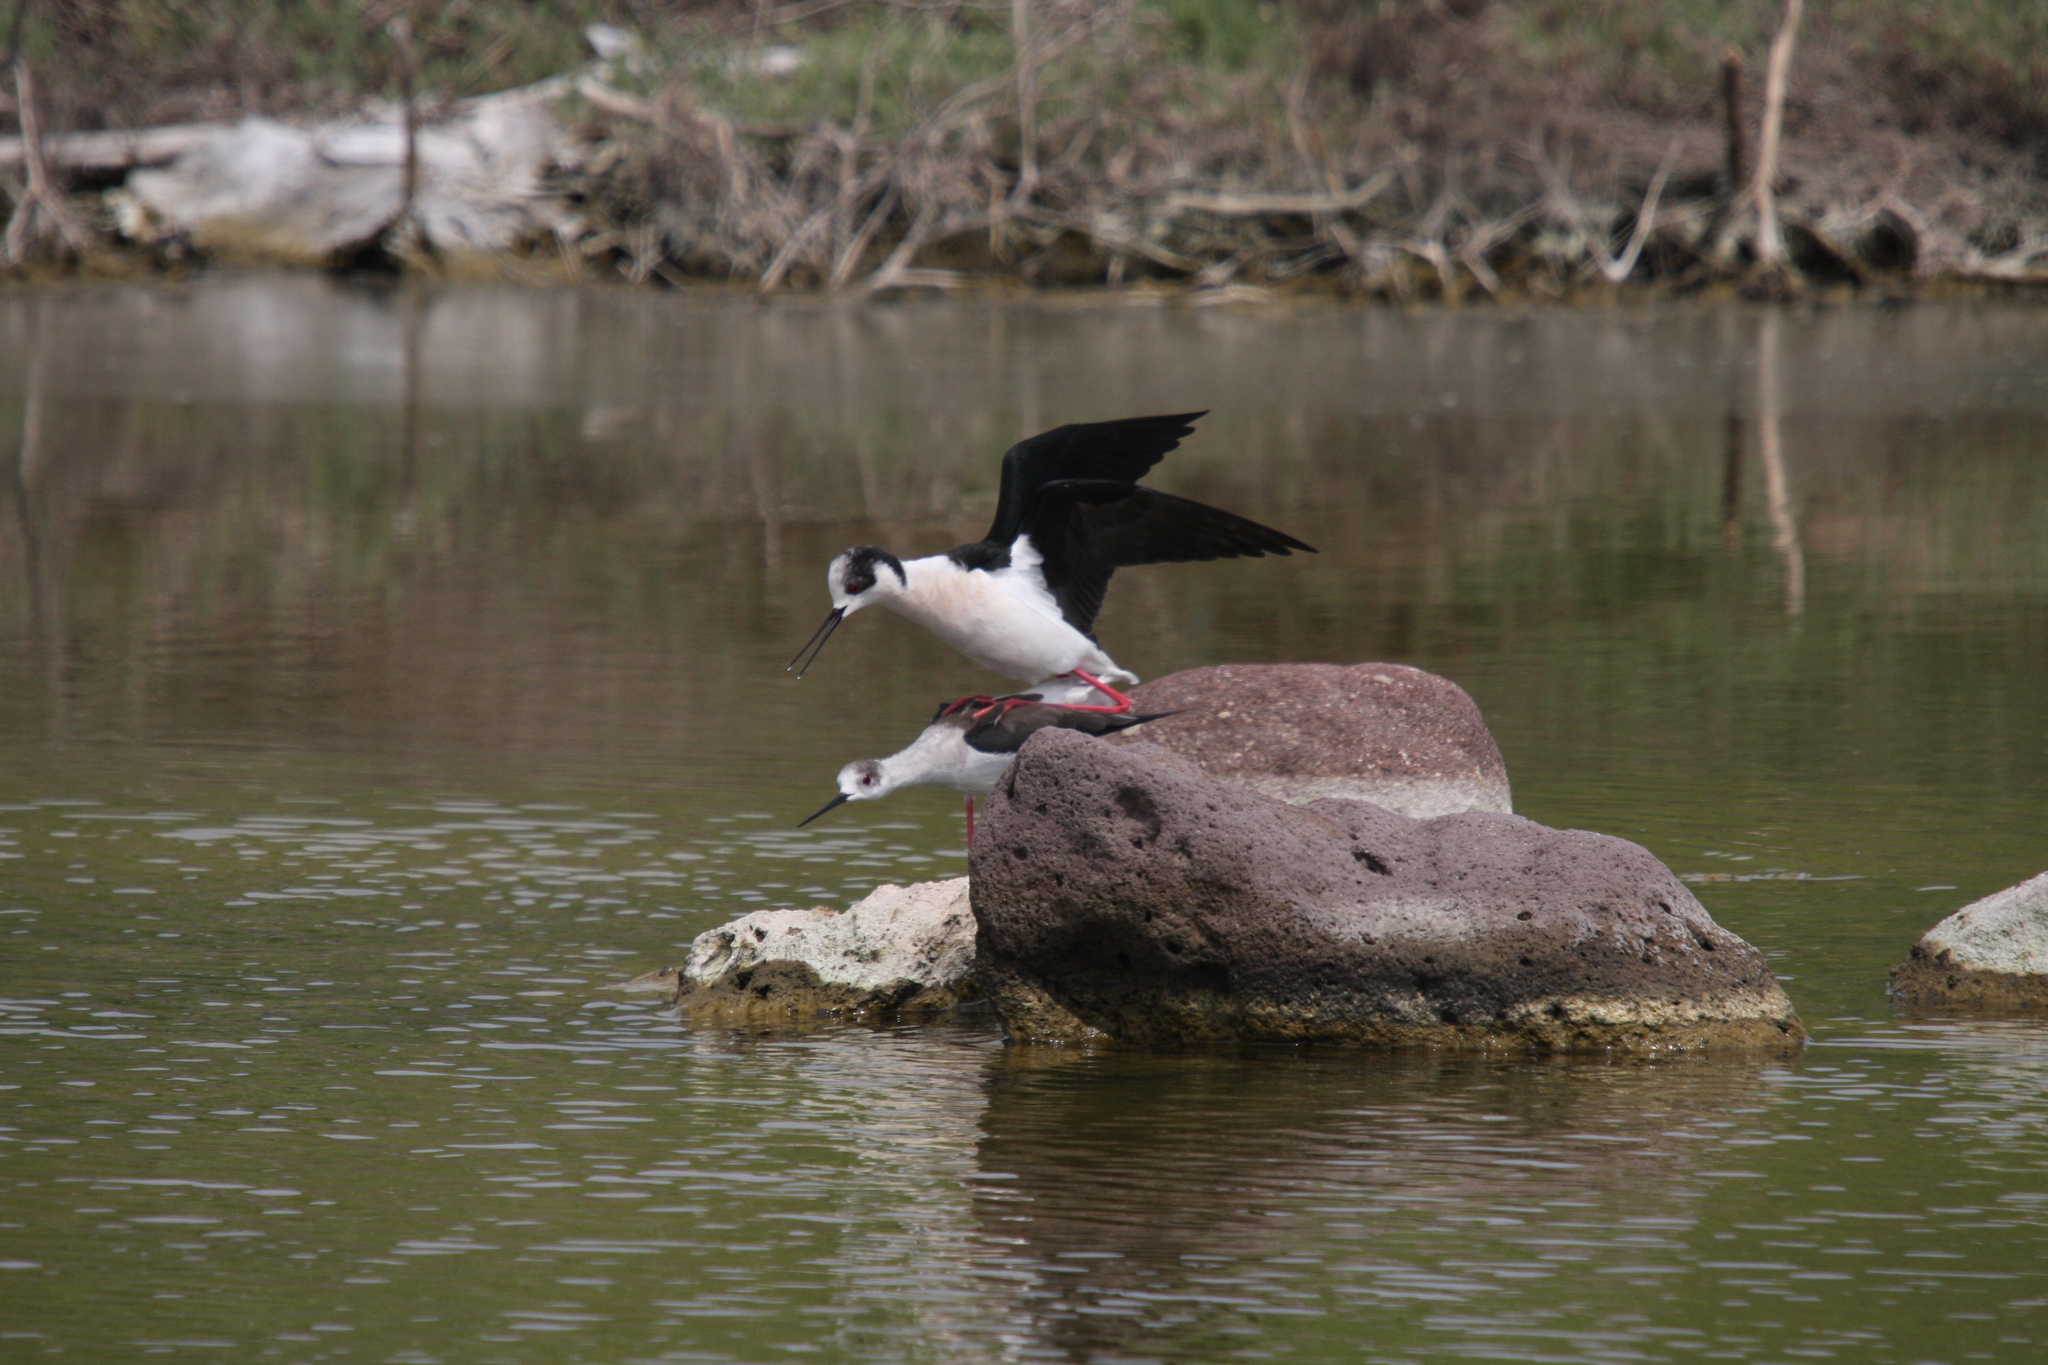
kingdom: Animalia
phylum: Chordata
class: Aves
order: Charadriiformes
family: Recurvirostridae
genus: Himantopus
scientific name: Himantopus himantopus
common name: Black-winged stilt
